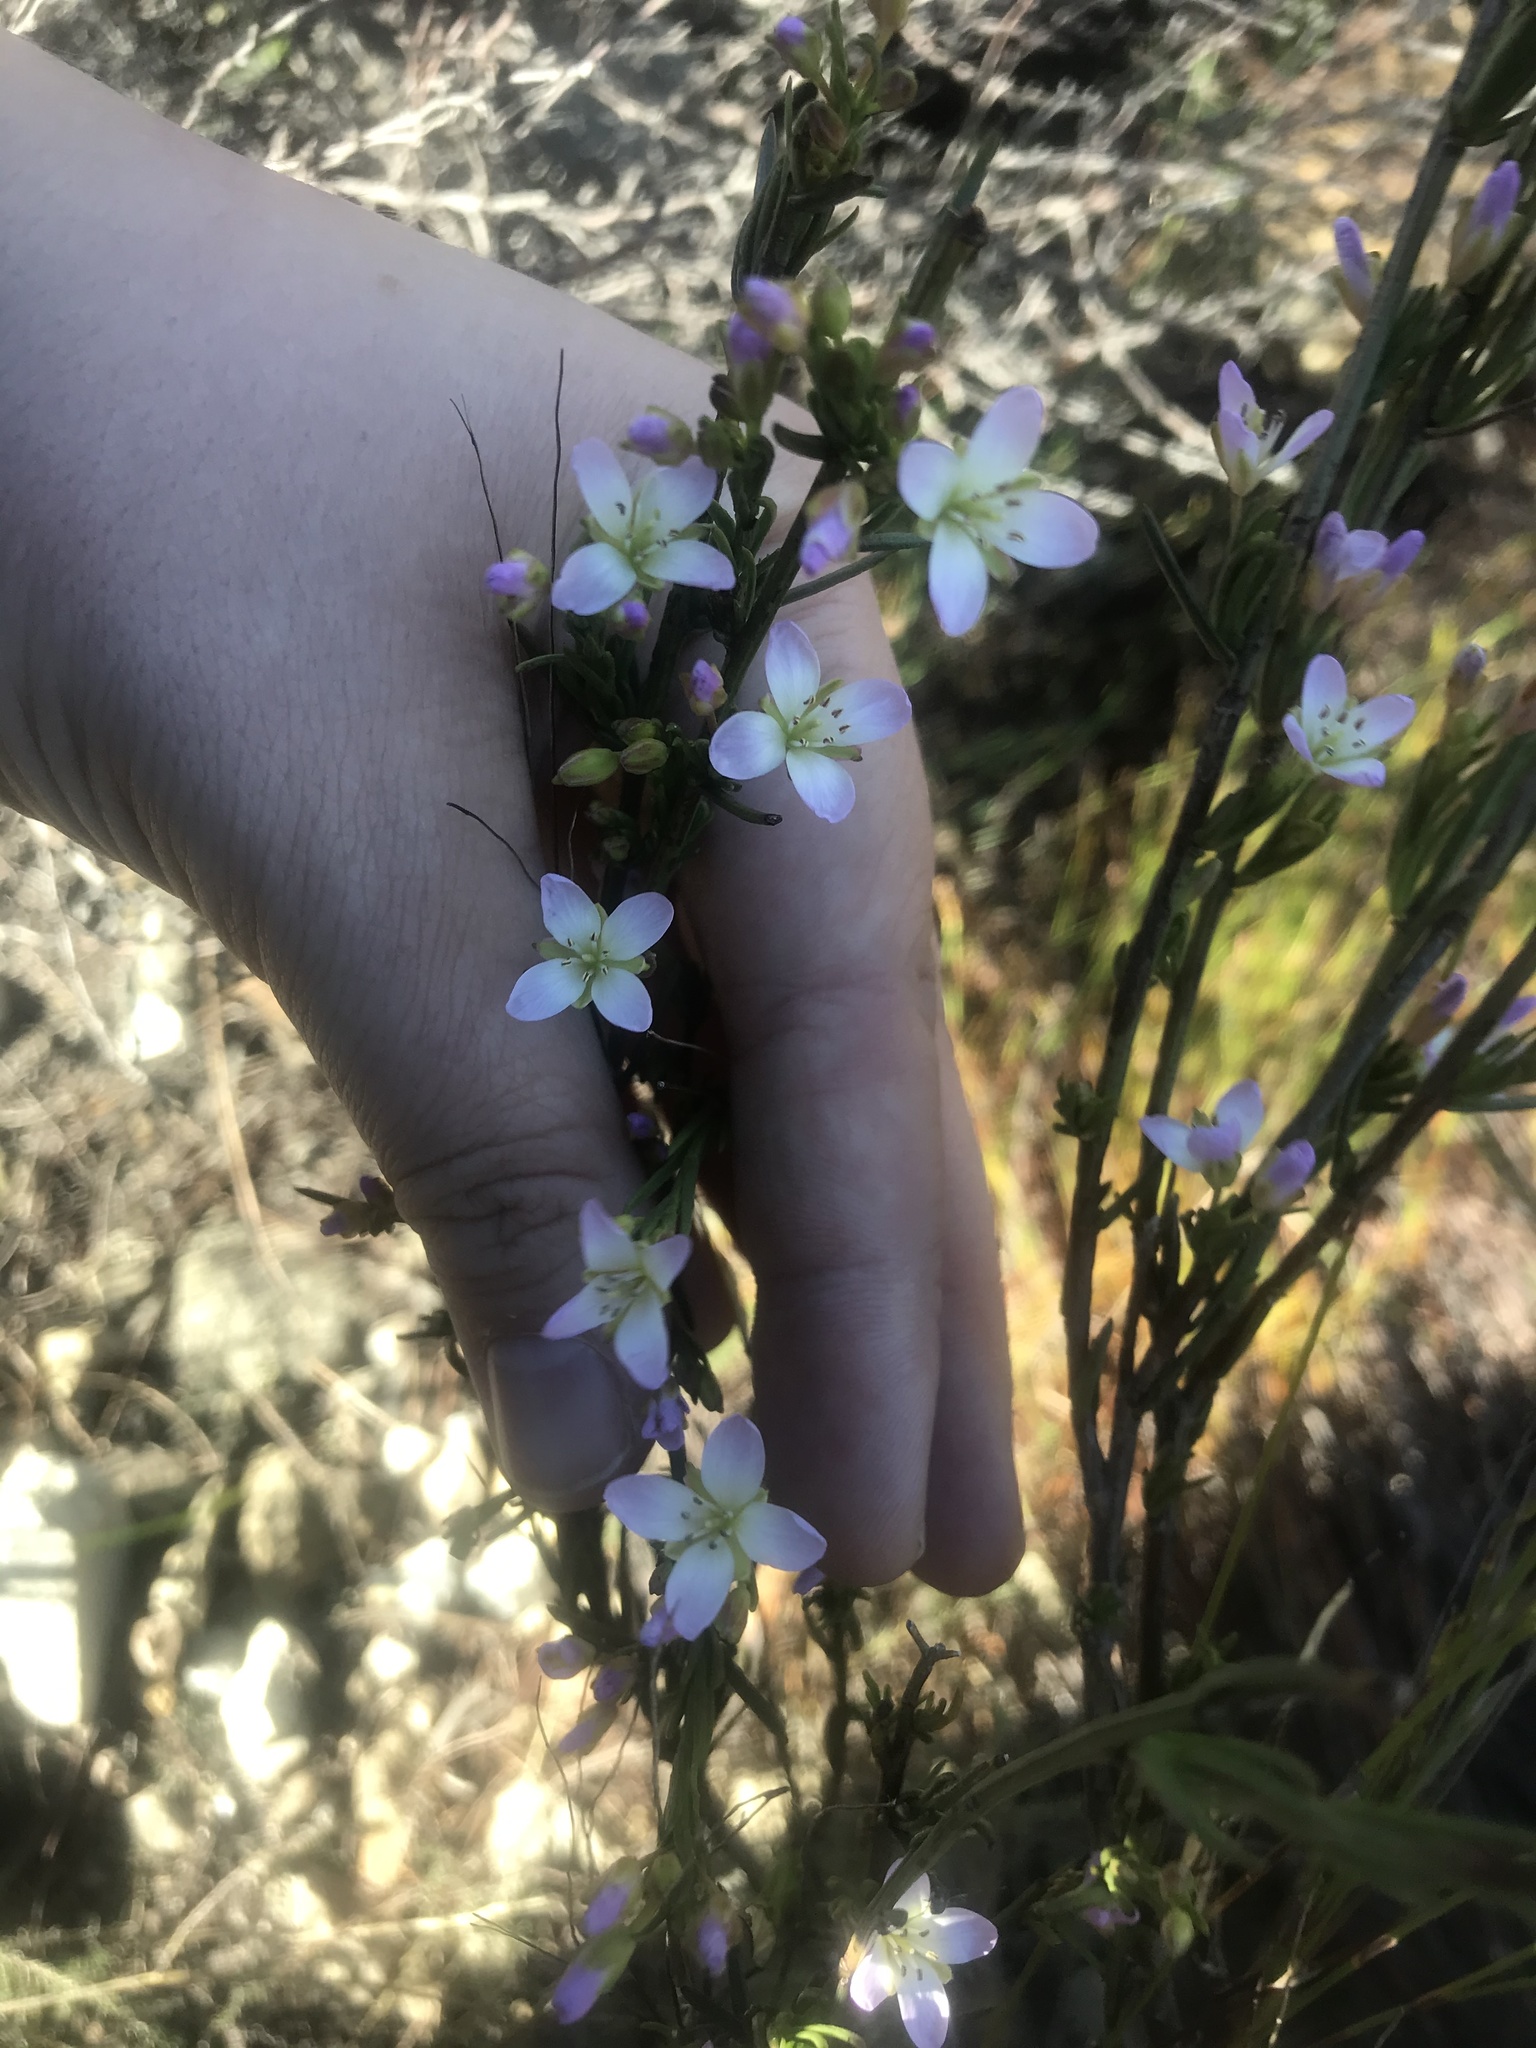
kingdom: Plantae
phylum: Tracheophyta
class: Magnoliopsida
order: Brassicales
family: Brassicaceae
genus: Heliophila
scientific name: Heliophila scoparia
